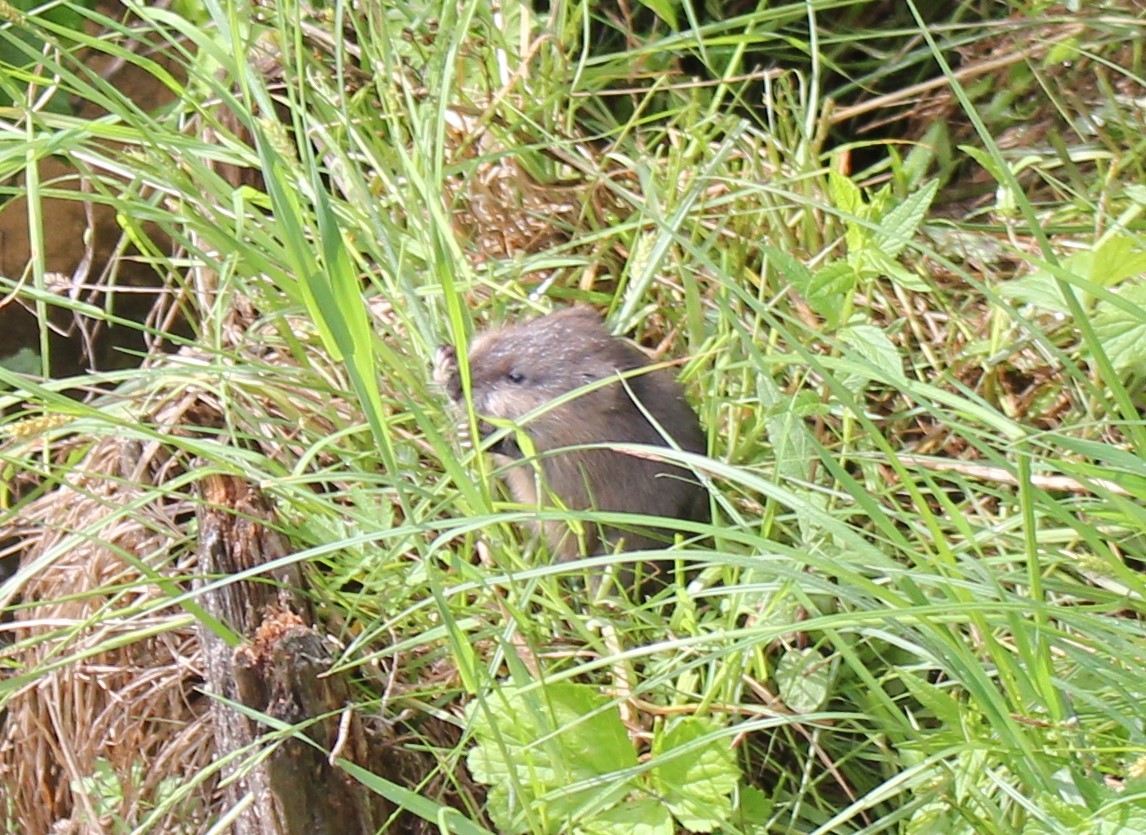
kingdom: Animalia
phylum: Chordata
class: Mammalia
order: Rodentia
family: Cricetidae
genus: Ondatra
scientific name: Ondatra zibethicus
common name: Muskrat
